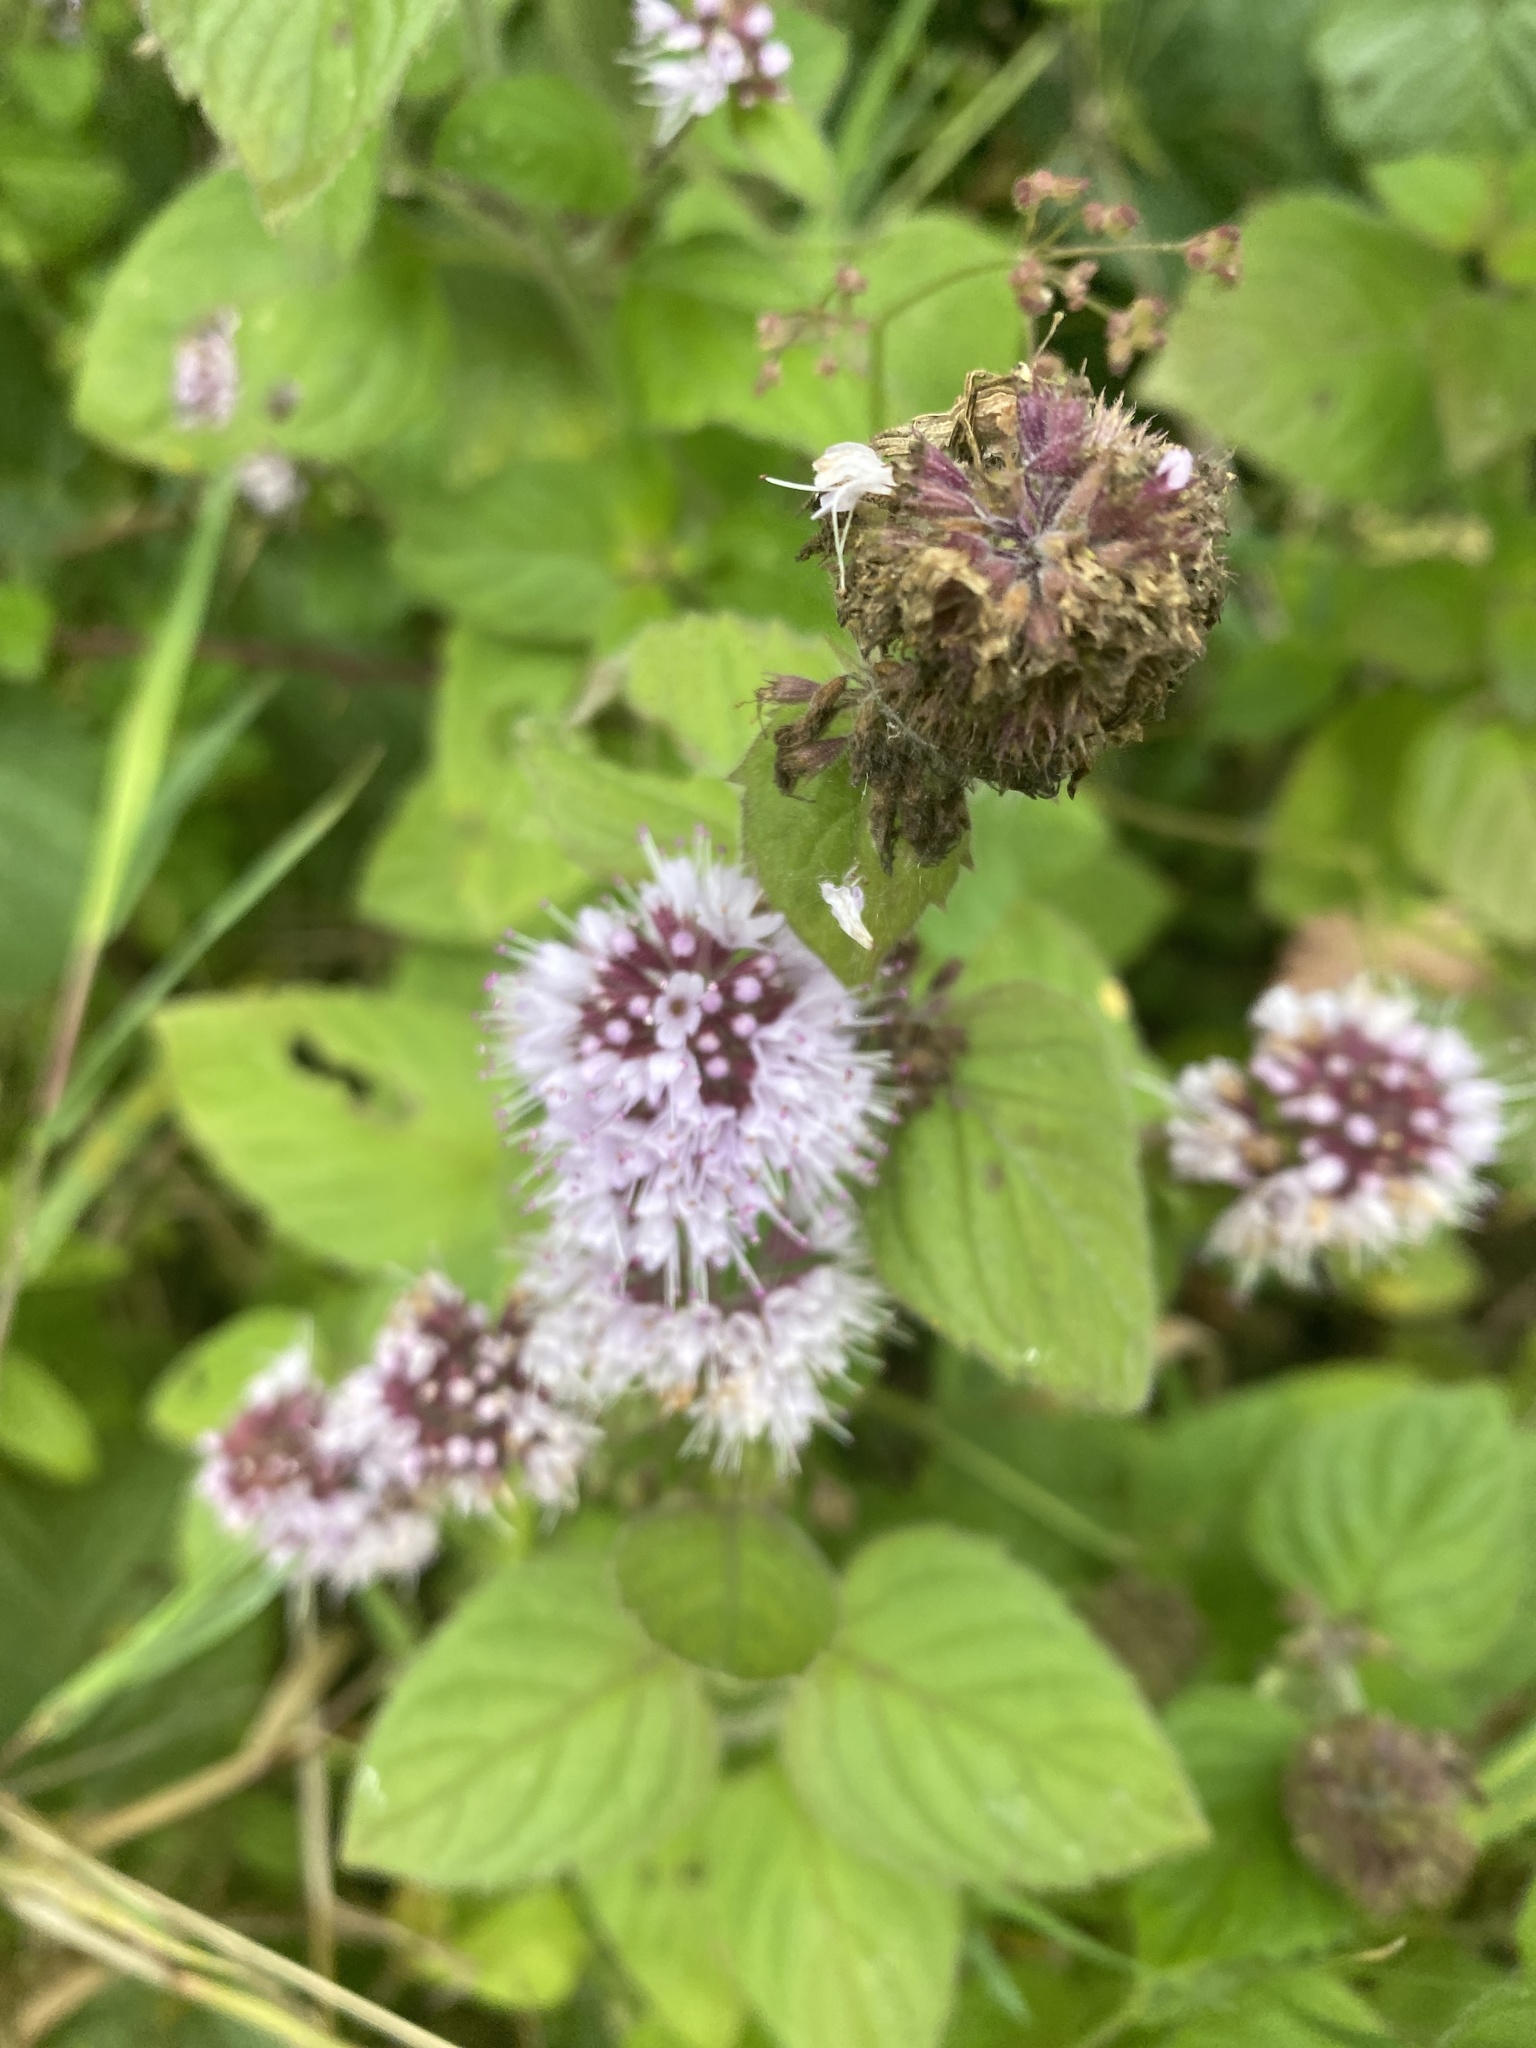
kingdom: Plantae
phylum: Tracheophyta
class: Magnoliopsida
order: Lamiales
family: Lamiaceae
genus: Mentha
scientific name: Mentha aquatica
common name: Water mint
